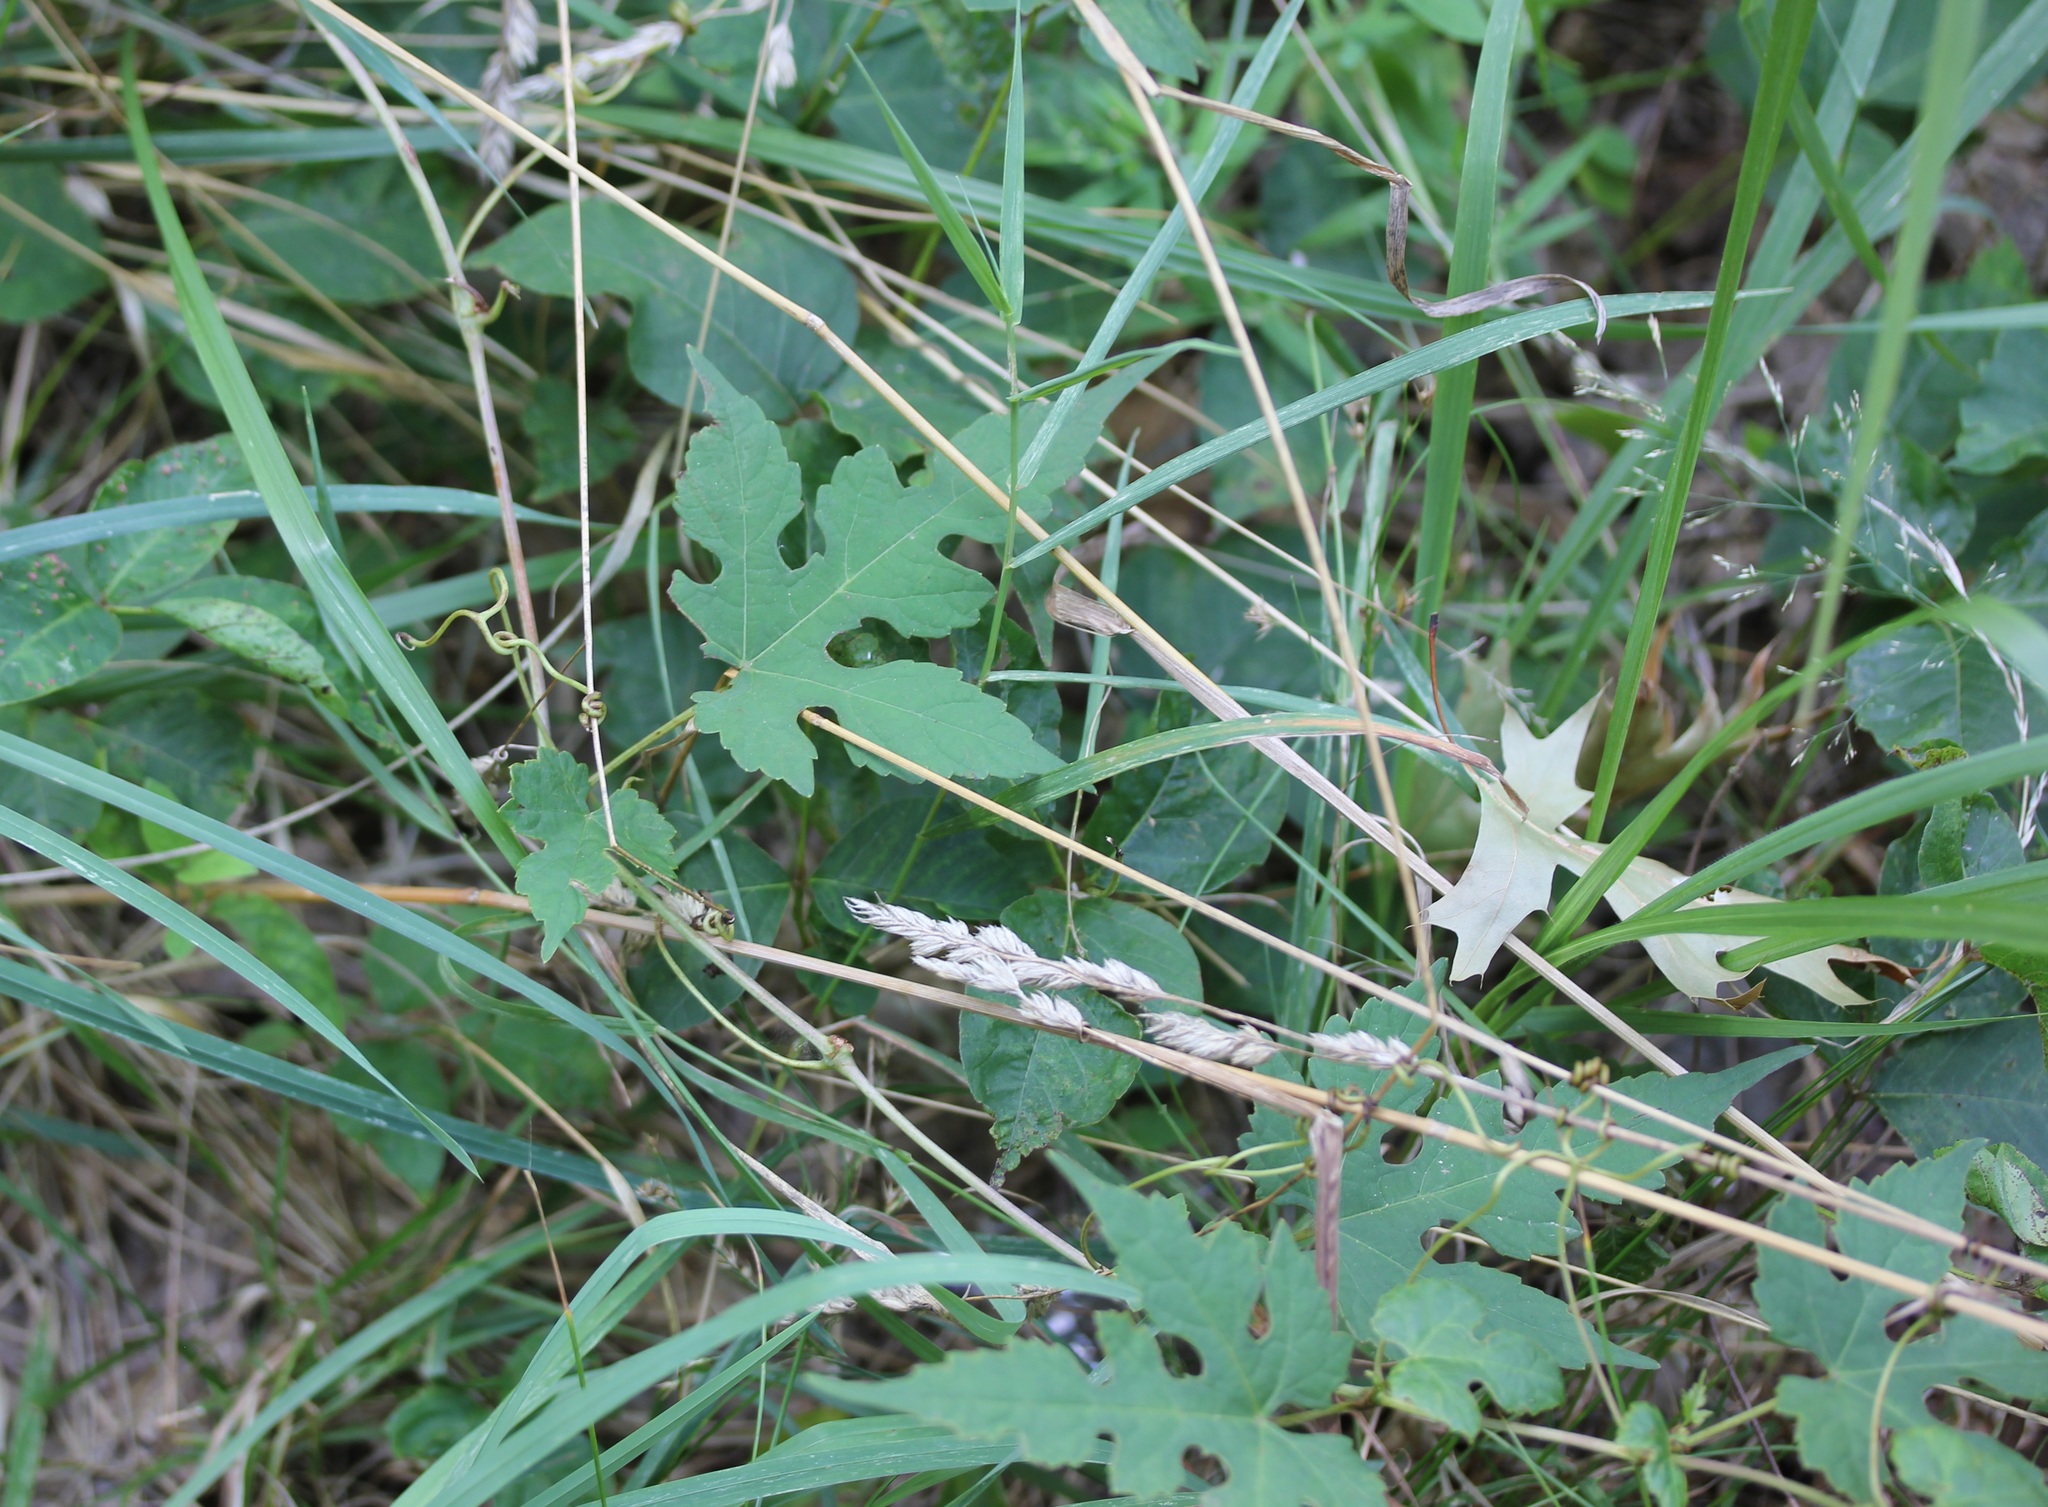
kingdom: Plantae
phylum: Tracheophyta
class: Magnoliopsida
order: Vitales
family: Vitaceae
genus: Ampelopsis
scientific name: Ampelopsis glandulosa
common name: Amur peppervine
